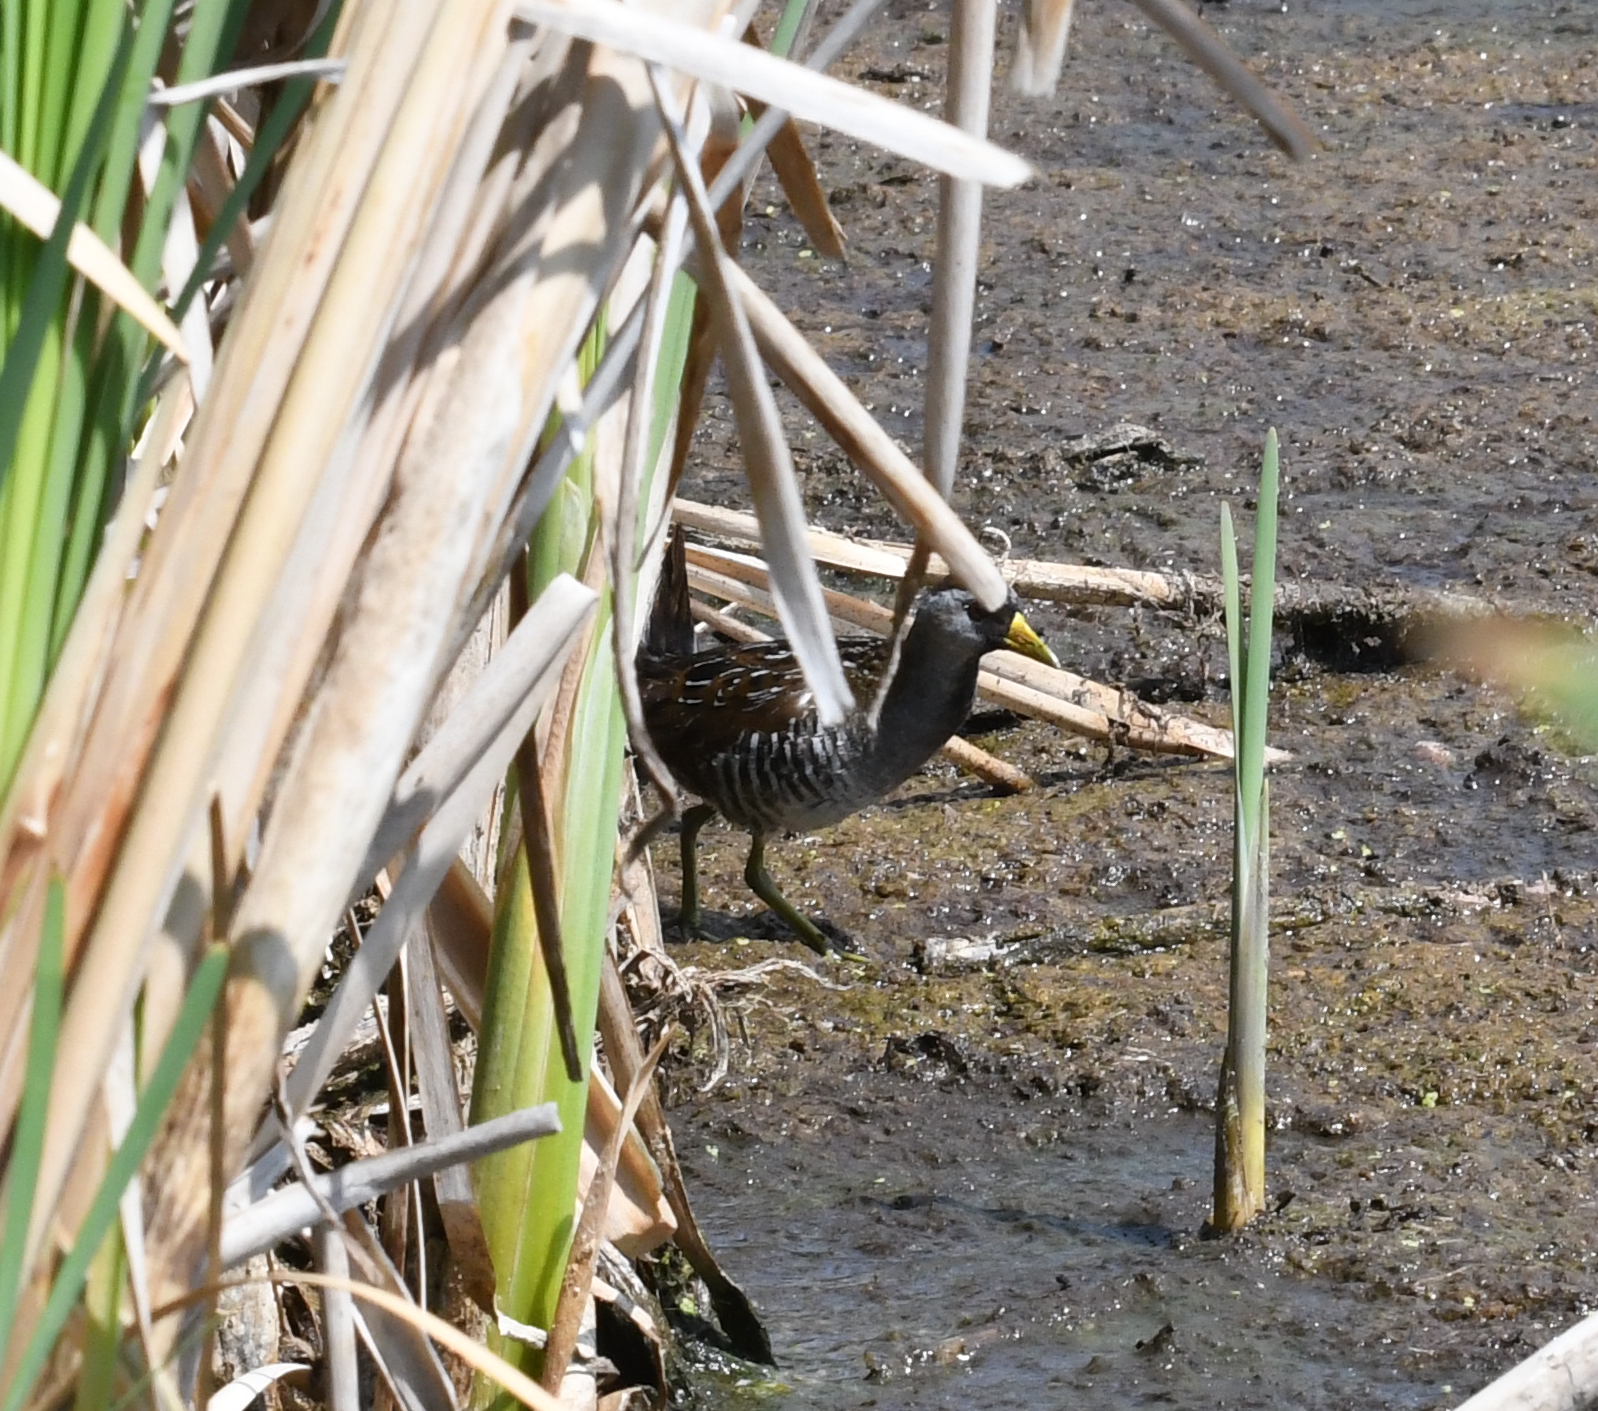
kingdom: Animalia
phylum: Chordata
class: Aves
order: Gruiformes
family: Rallidae
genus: Porzana
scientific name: Porzana carolina
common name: Sora
